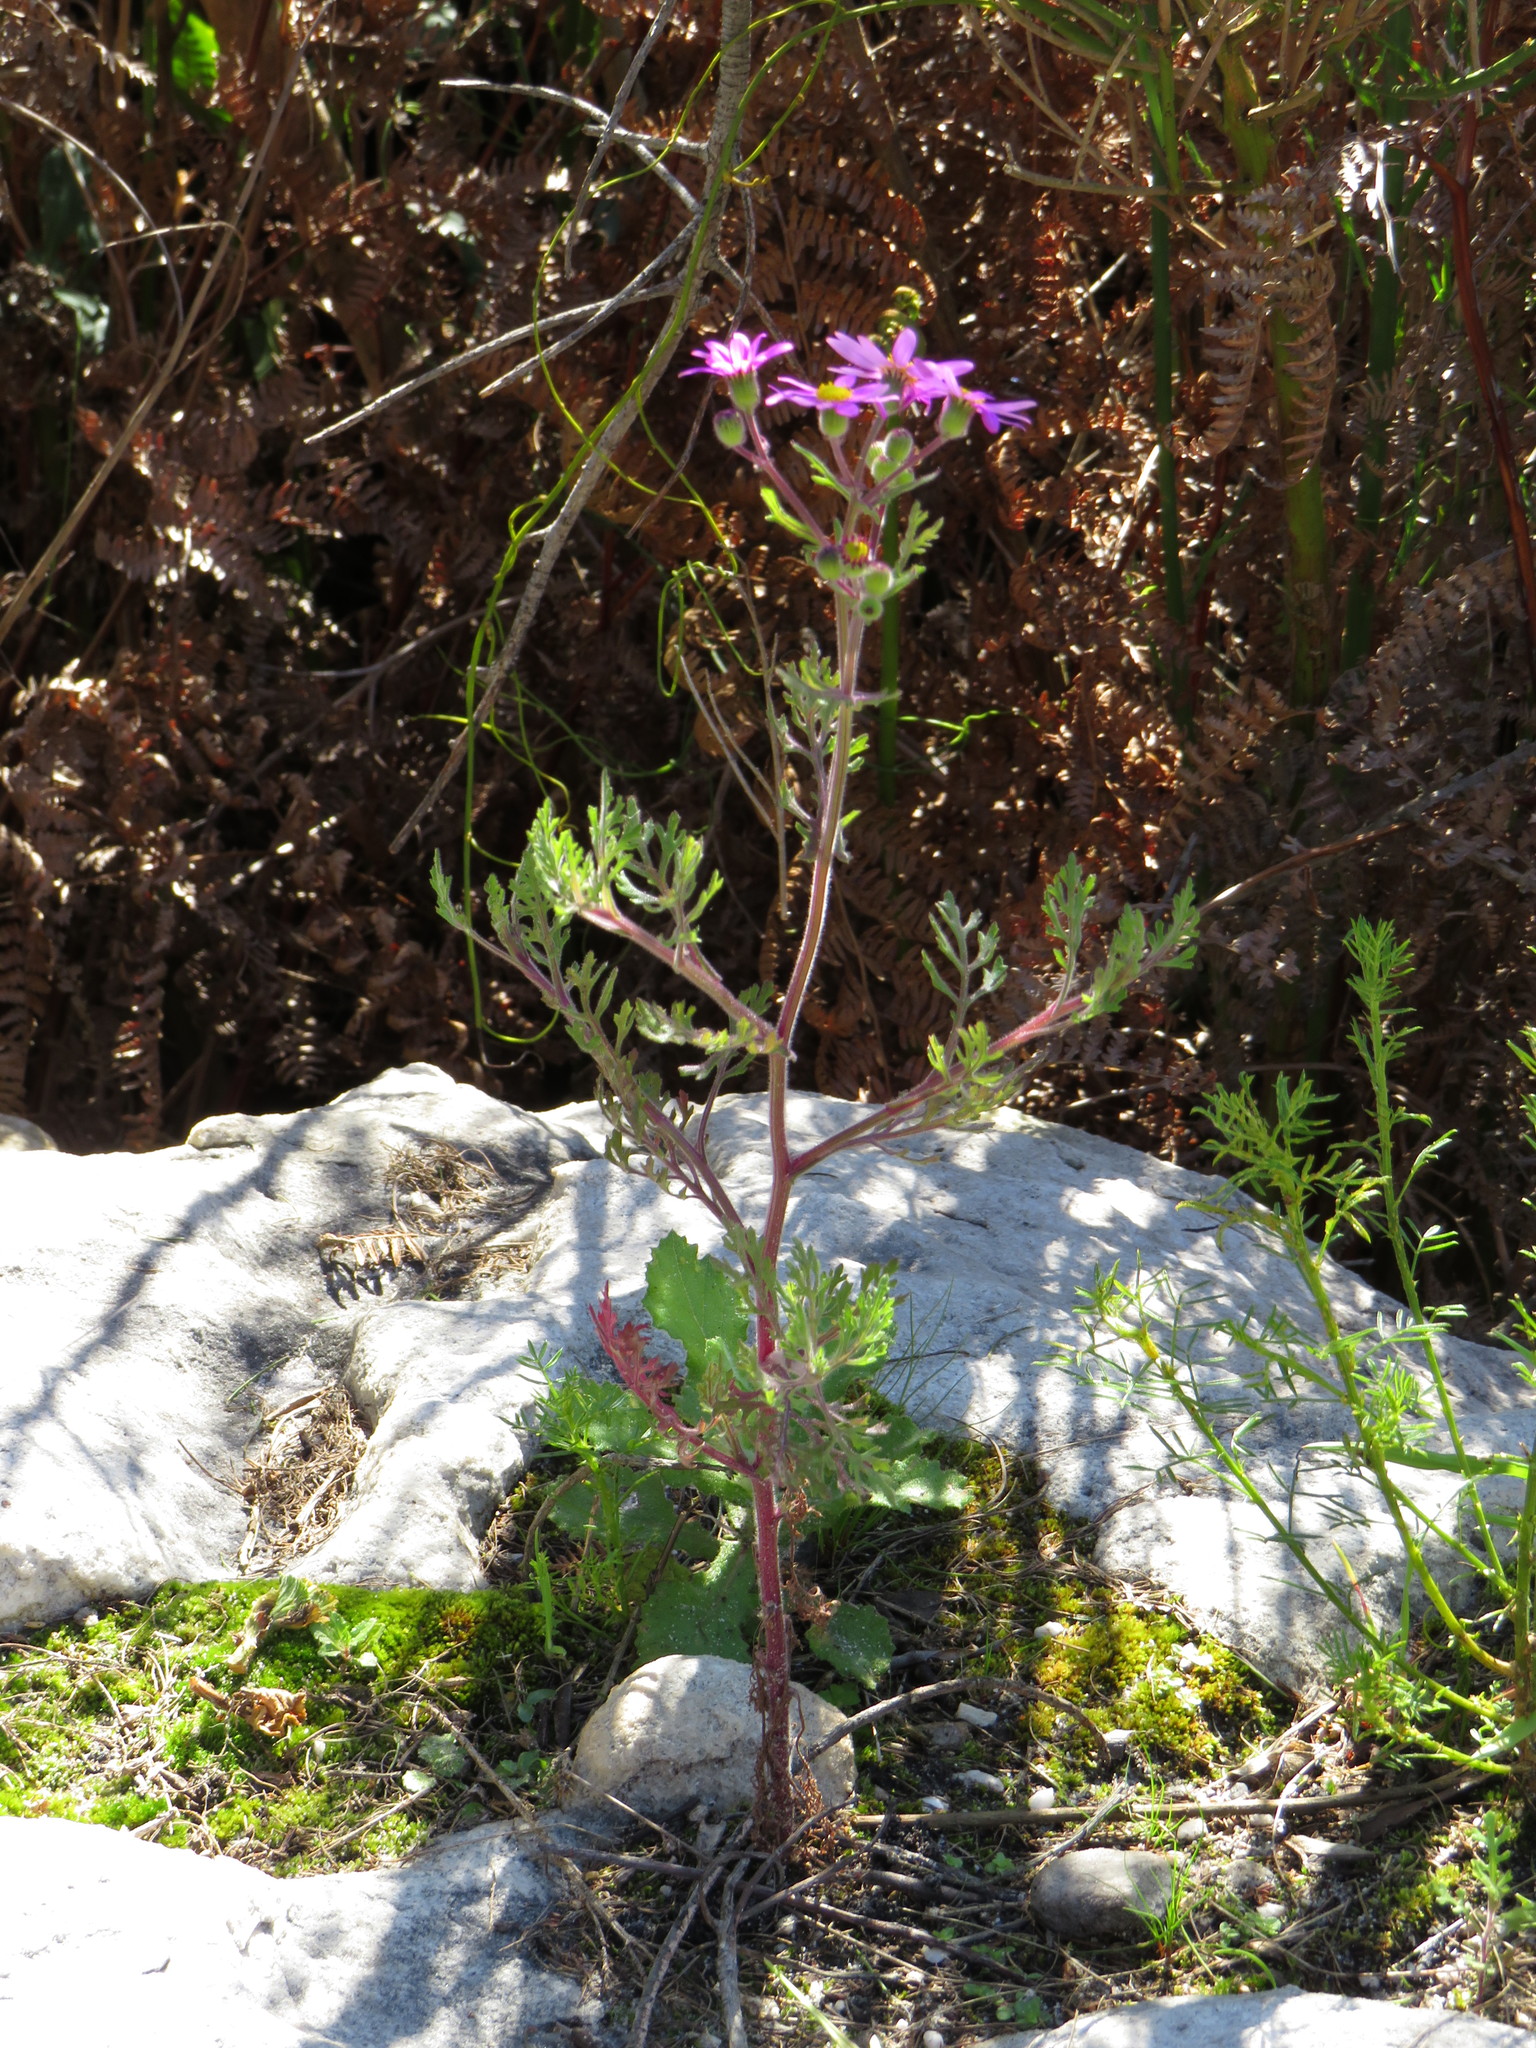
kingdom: Plantae
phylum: Tracheophyta
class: Magnoliopsida
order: Asterales
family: Asteraceae
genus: Senecio
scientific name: Senecio arenarius
